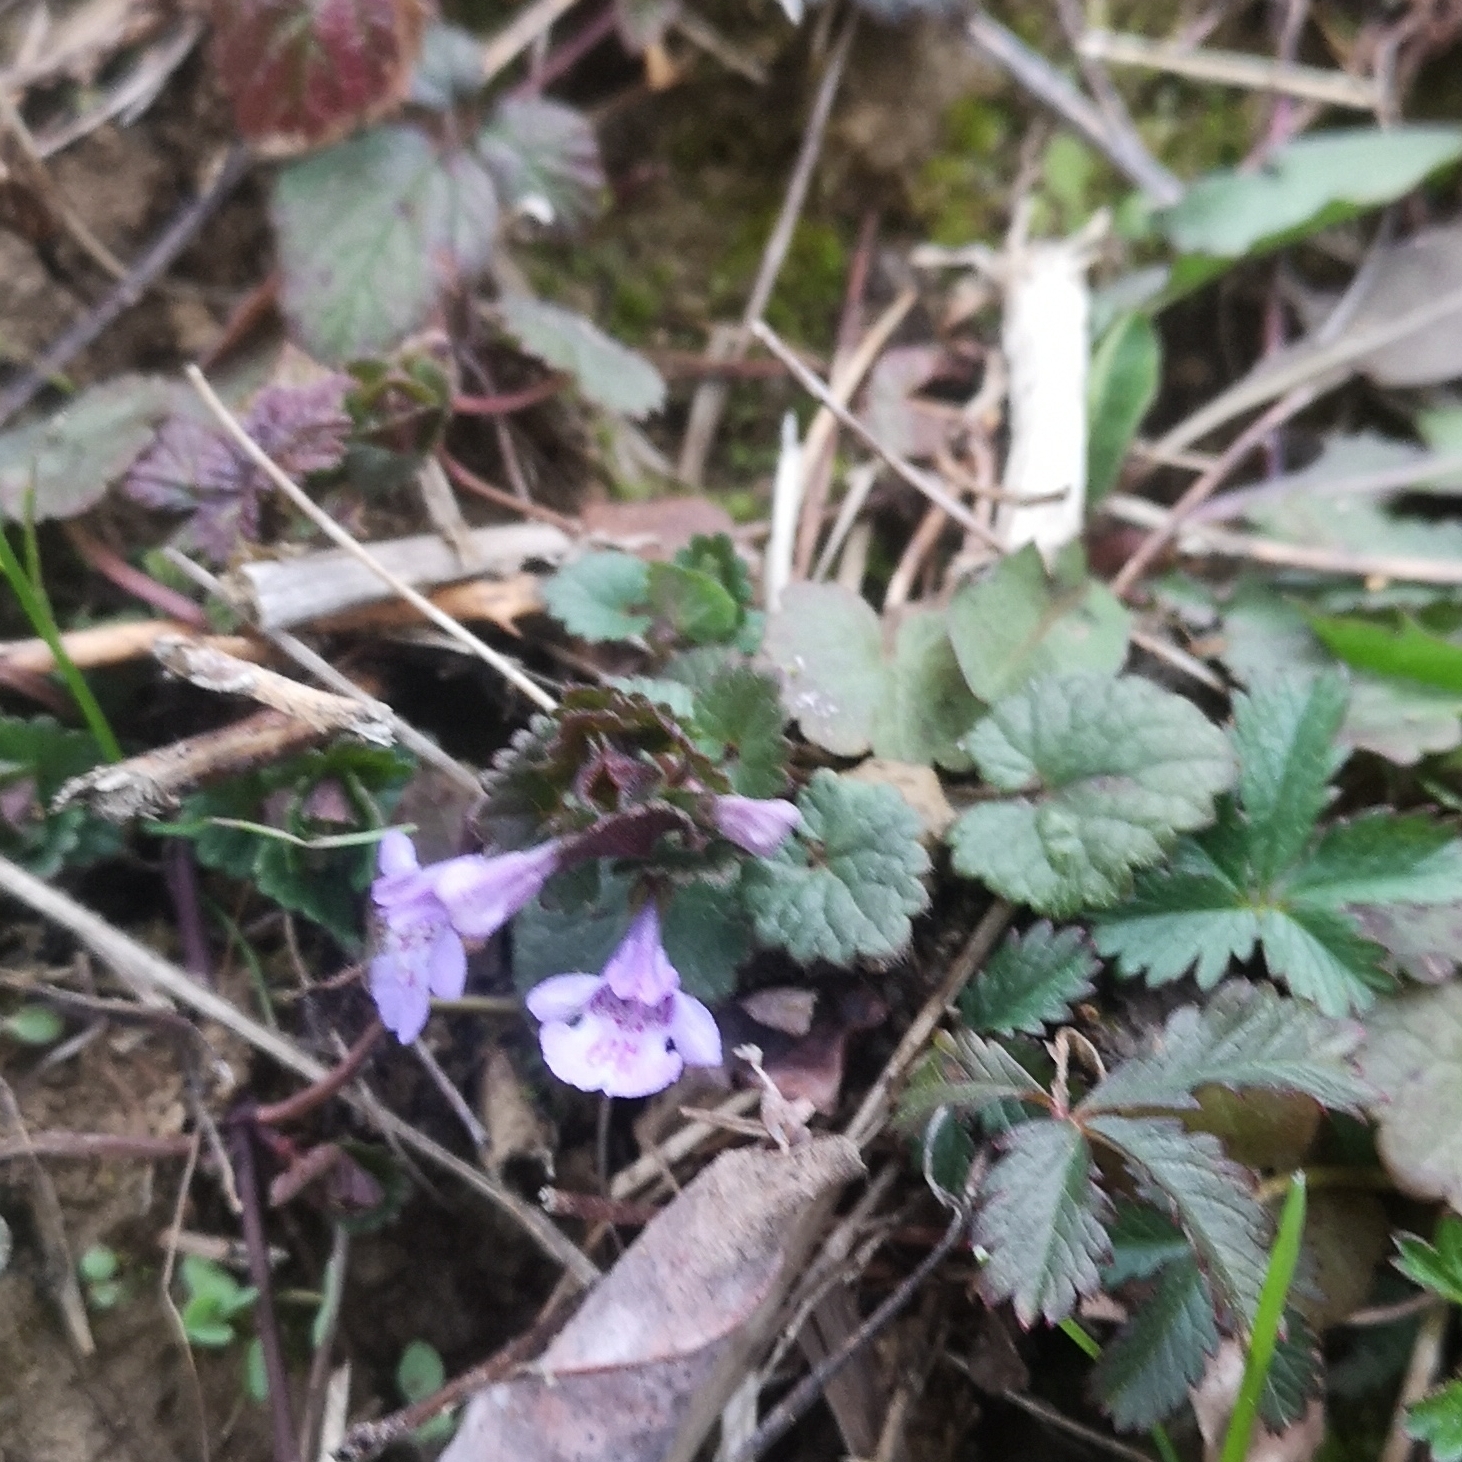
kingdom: Plantae
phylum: Tracheophyta
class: Magnoliopsida
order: Lamiales
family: Lamiaceae
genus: Glechoma
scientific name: Glechoma hederacea
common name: Ground ivy
